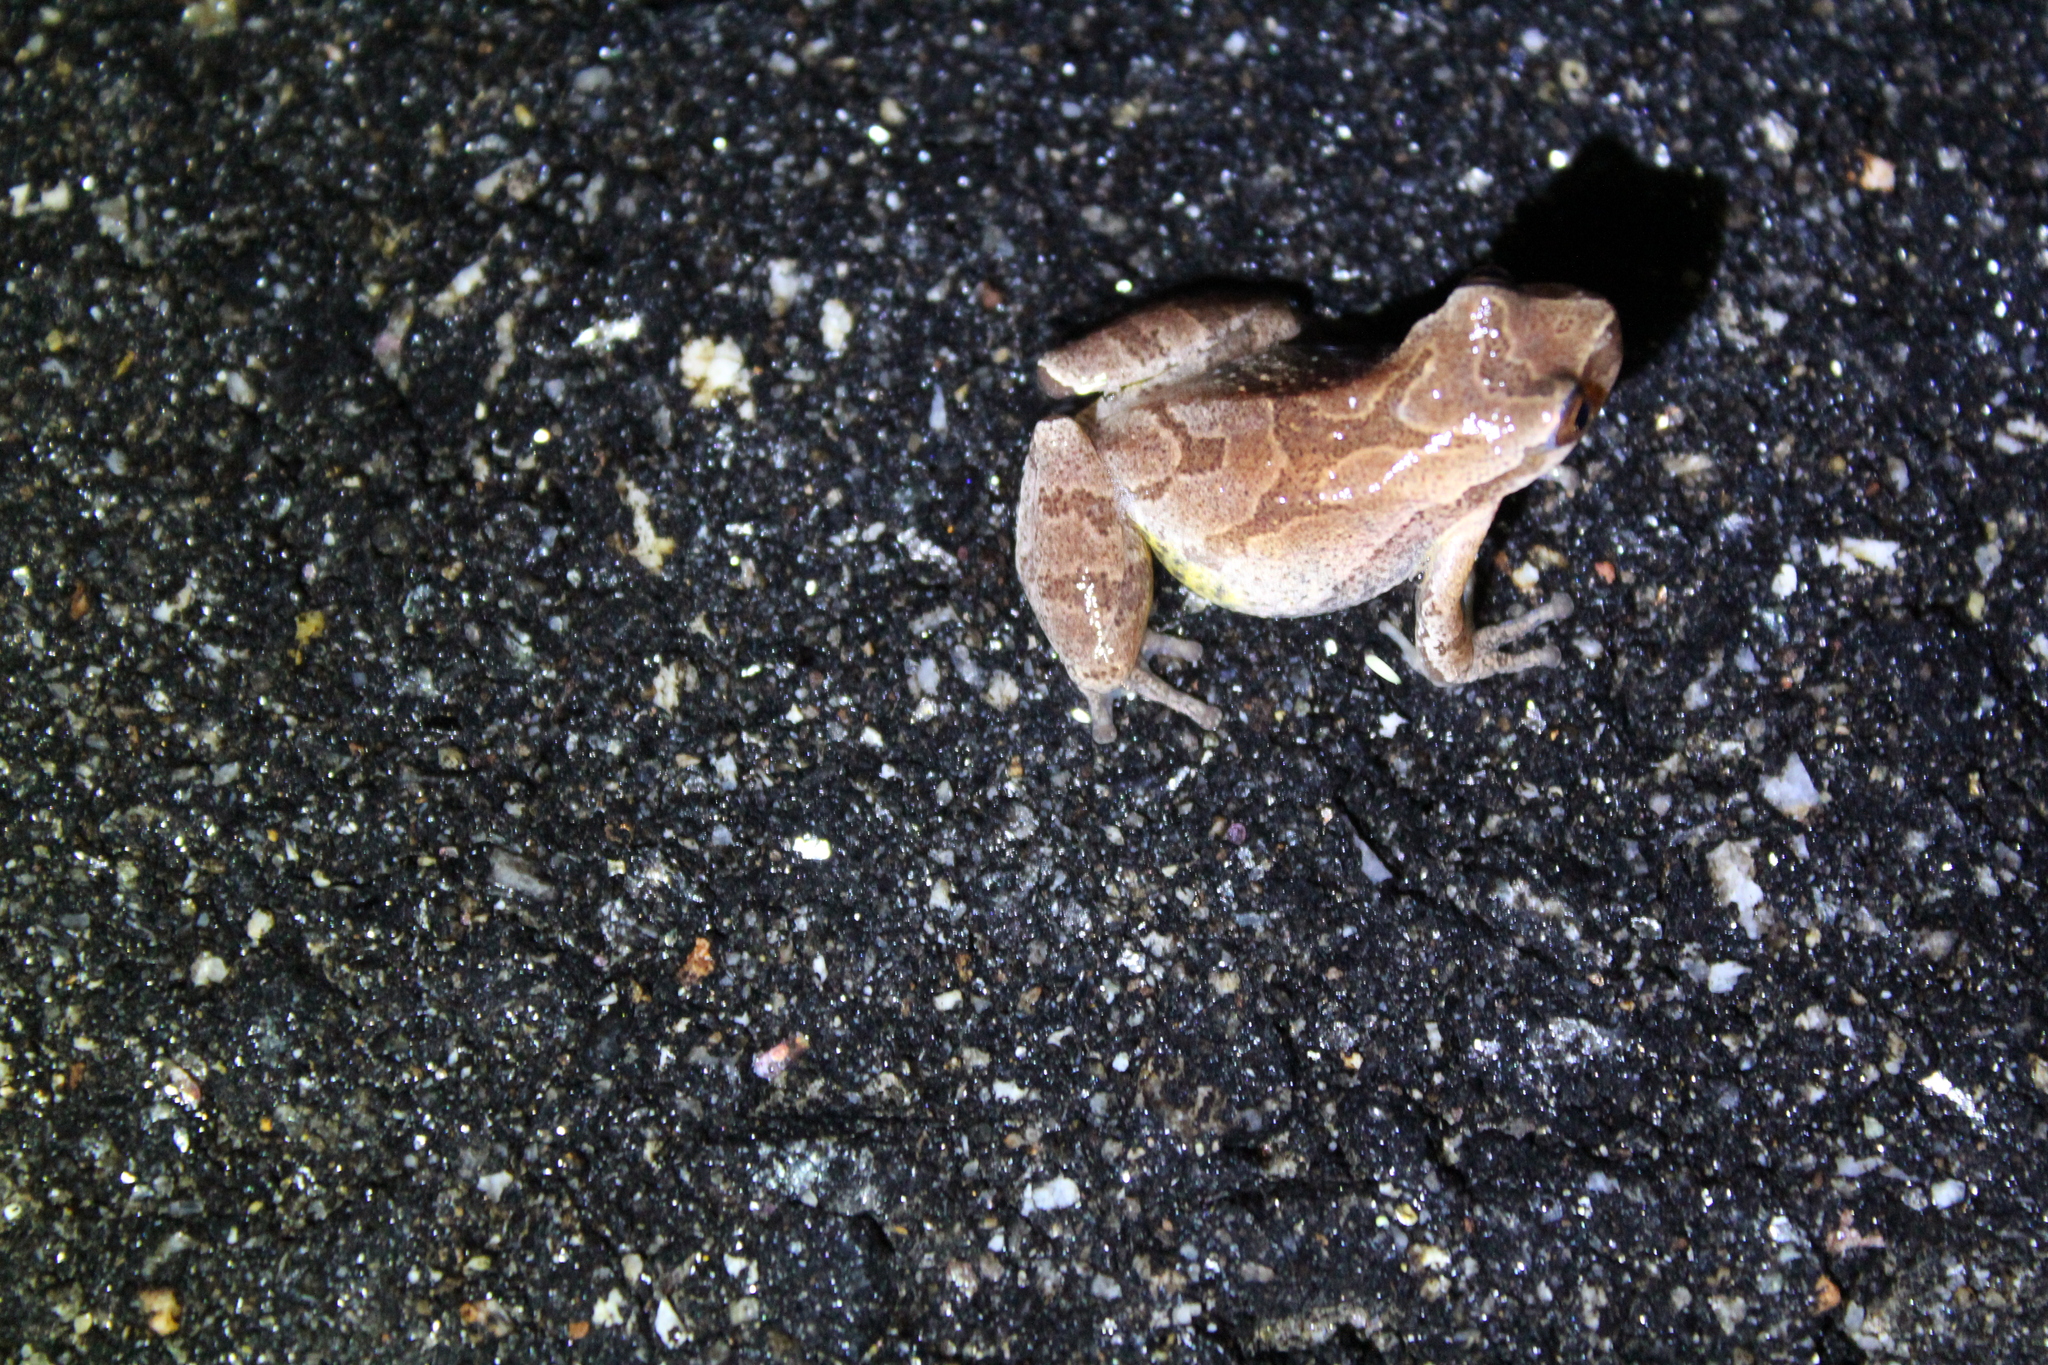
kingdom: Animalia
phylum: Chordata
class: Amphibia
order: Anura
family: Hylidae
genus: Pseudacris
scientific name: Pseudacris crucifer
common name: Spring peeper
